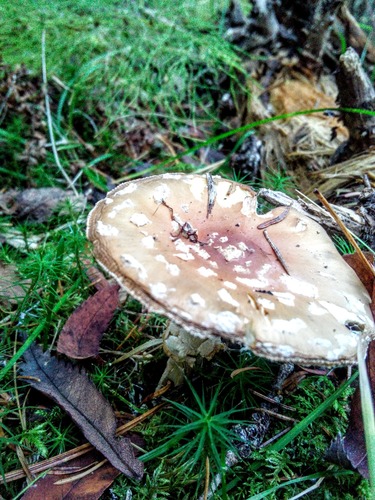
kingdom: Fungi
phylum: Basidiomycota
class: Agaricomycetes
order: Agaricales
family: Amanitaceae
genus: Amanita
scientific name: Amanita pantherina
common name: Panthercap
